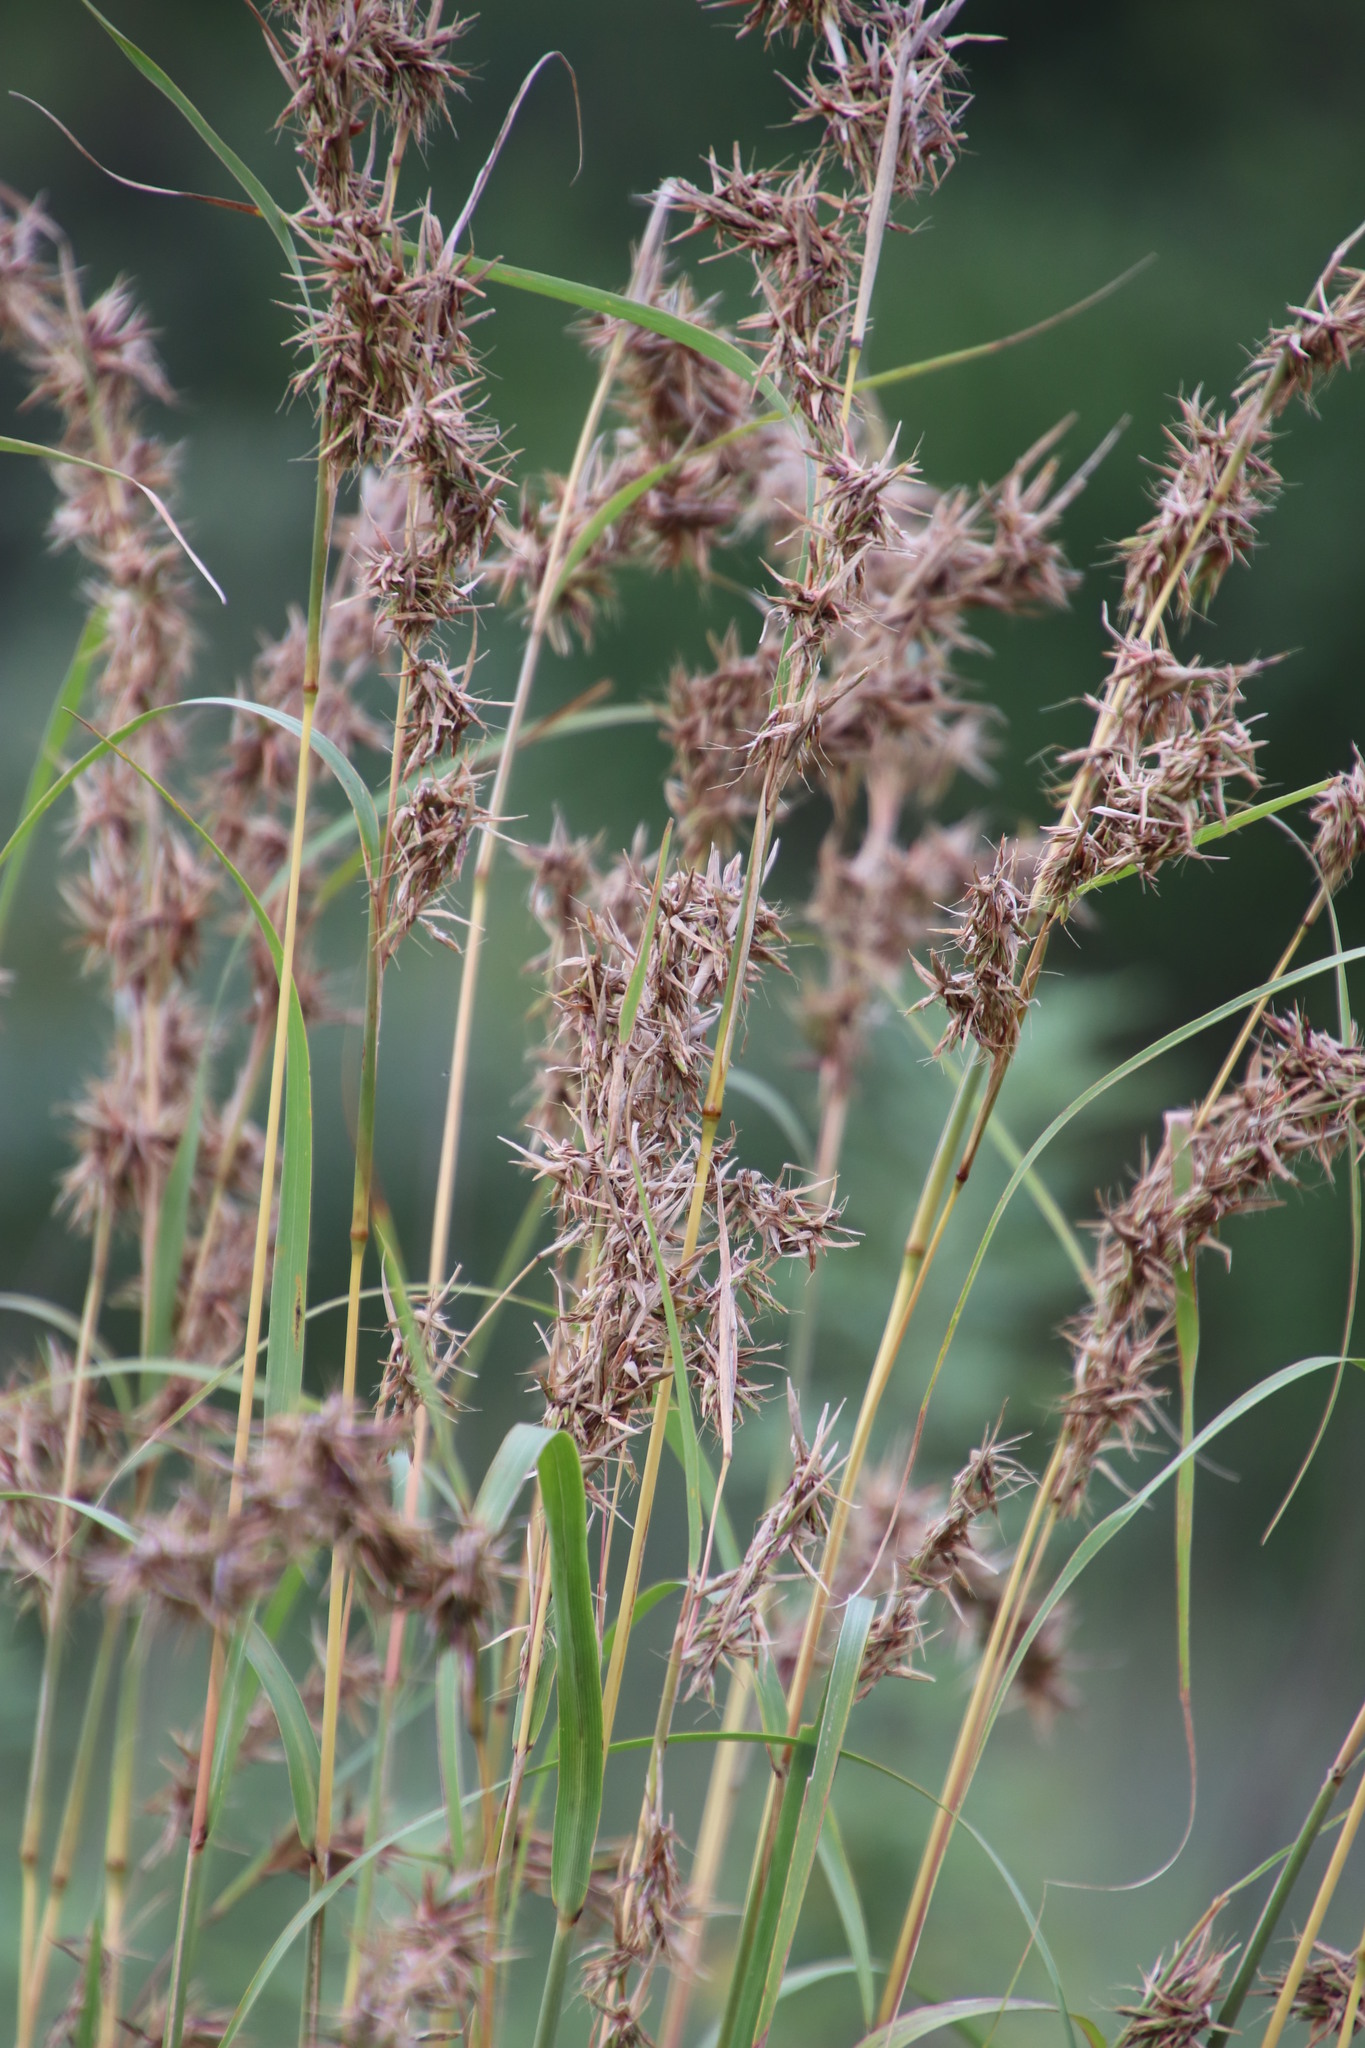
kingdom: Plantae
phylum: Tracheophyta
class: Liliopsida
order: Poales
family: Poaceae
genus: Cymbopogon
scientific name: Cymbopogon nardus
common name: Giant turpentine grass
